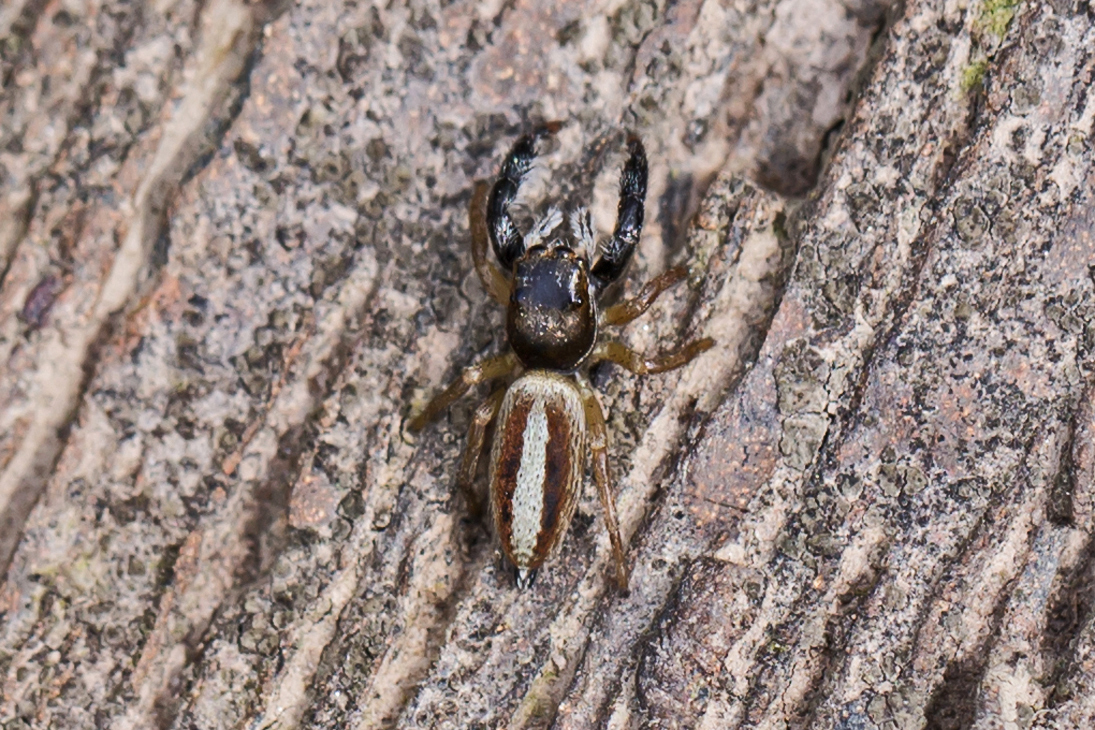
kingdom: Animalia
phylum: Arthropoda
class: Arachnida
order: Araneae
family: Salticidae
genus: Marpissa
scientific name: Marpissa formosa
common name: Short-bellied slender jumping spider
